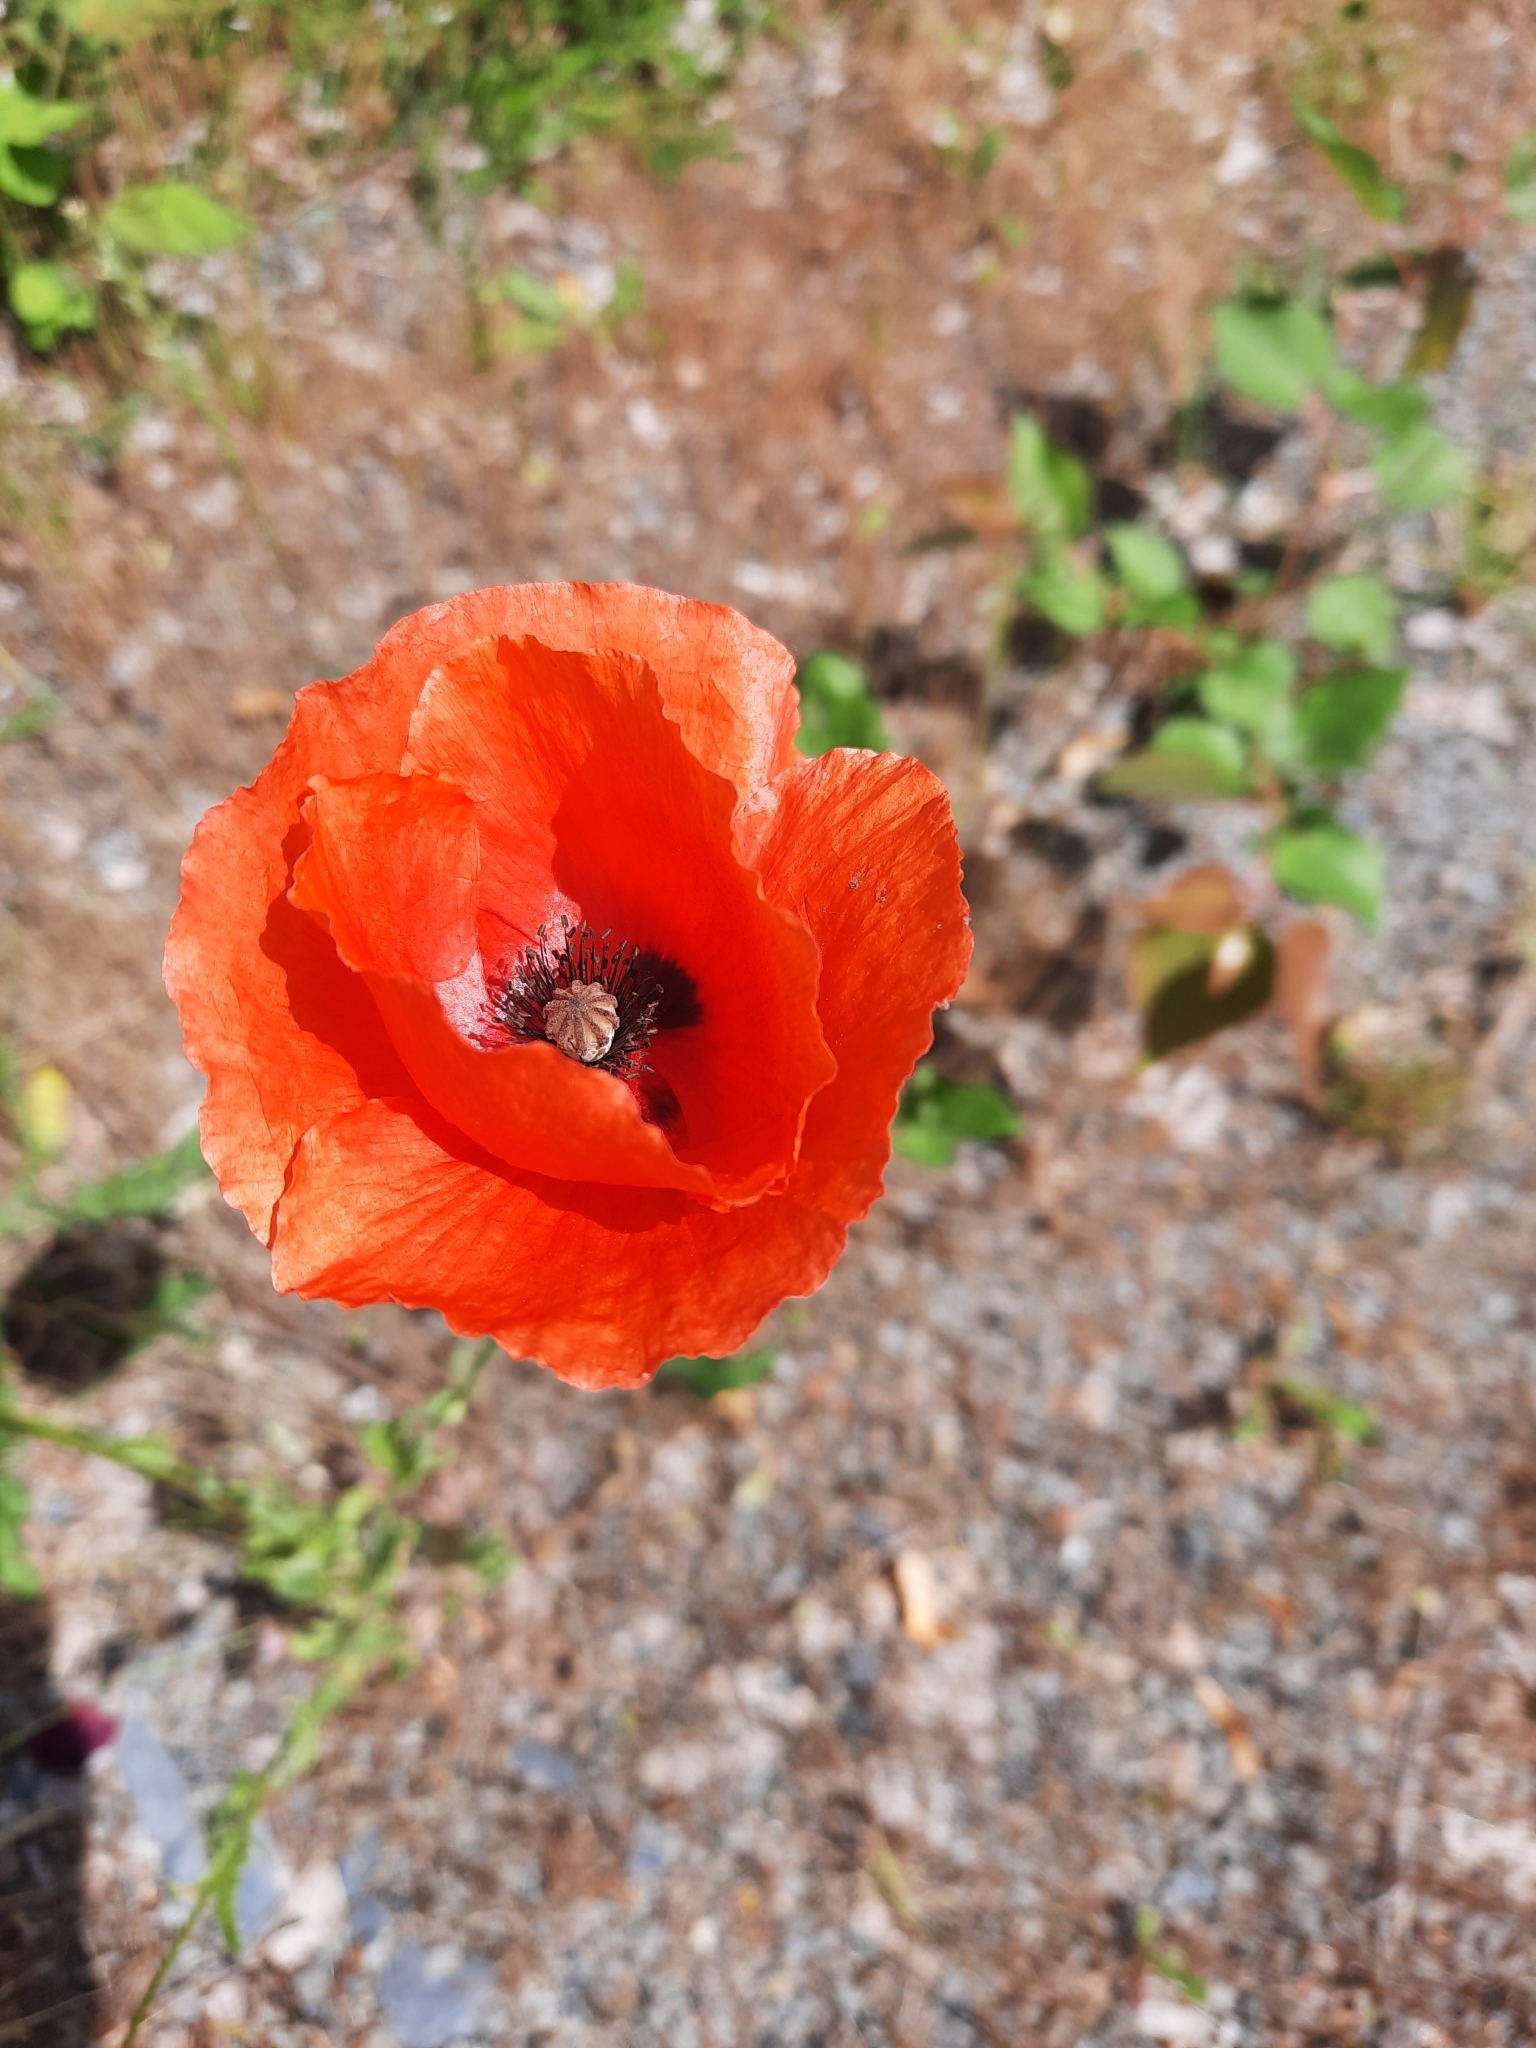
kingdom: Plantae
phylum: Tracheophyta
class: Magnoliopsida
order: Ranunculales
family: Papaveraceae
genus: Papaver
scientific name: Papaver rhoeas
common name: Corn poppy
